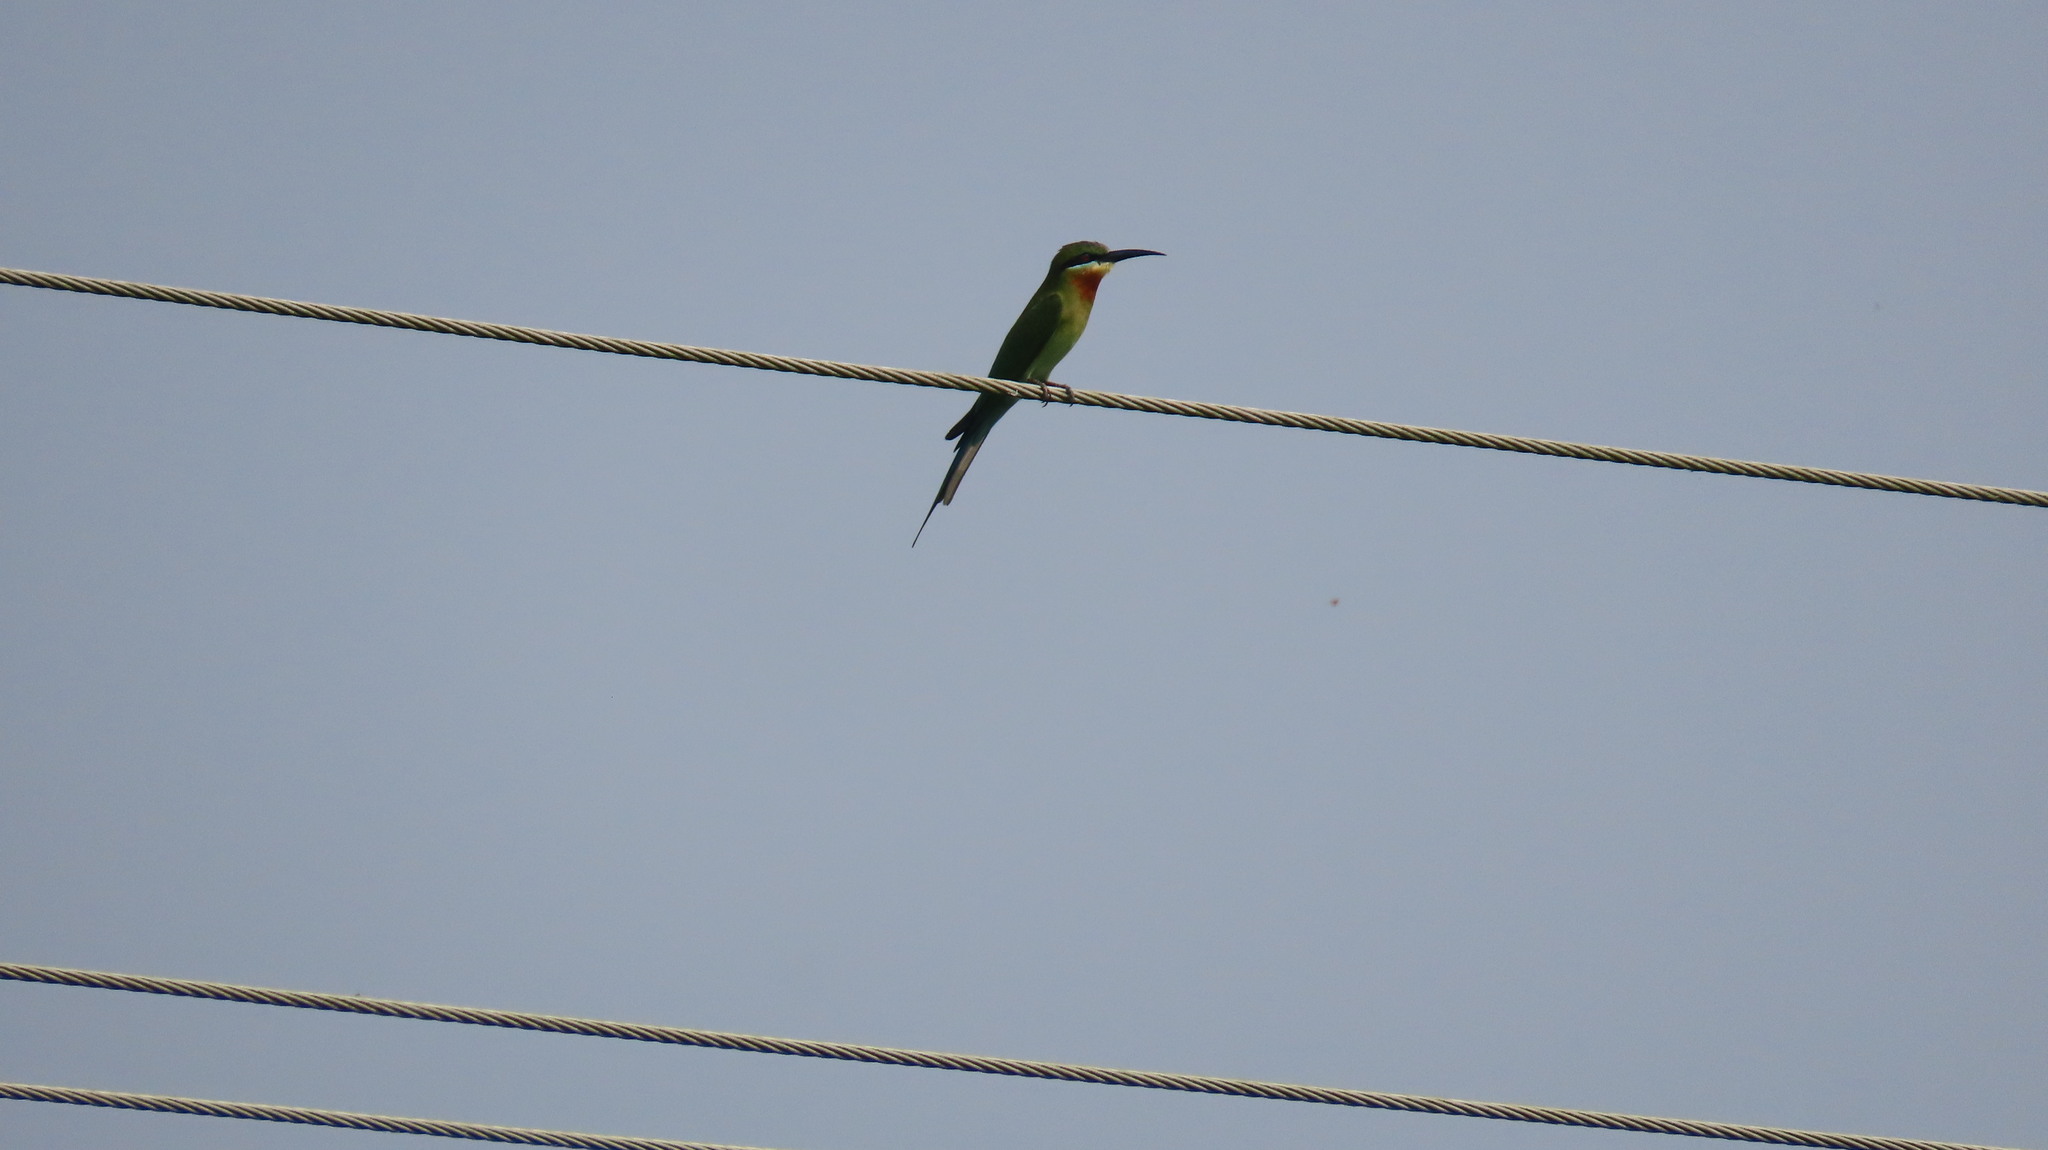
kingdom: Animalia
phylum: Chordata
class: Aves
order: Coraciiformes
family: Meropidae
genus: Merops
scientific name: Merops philippinus
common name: Blue-tailed bee-eater
